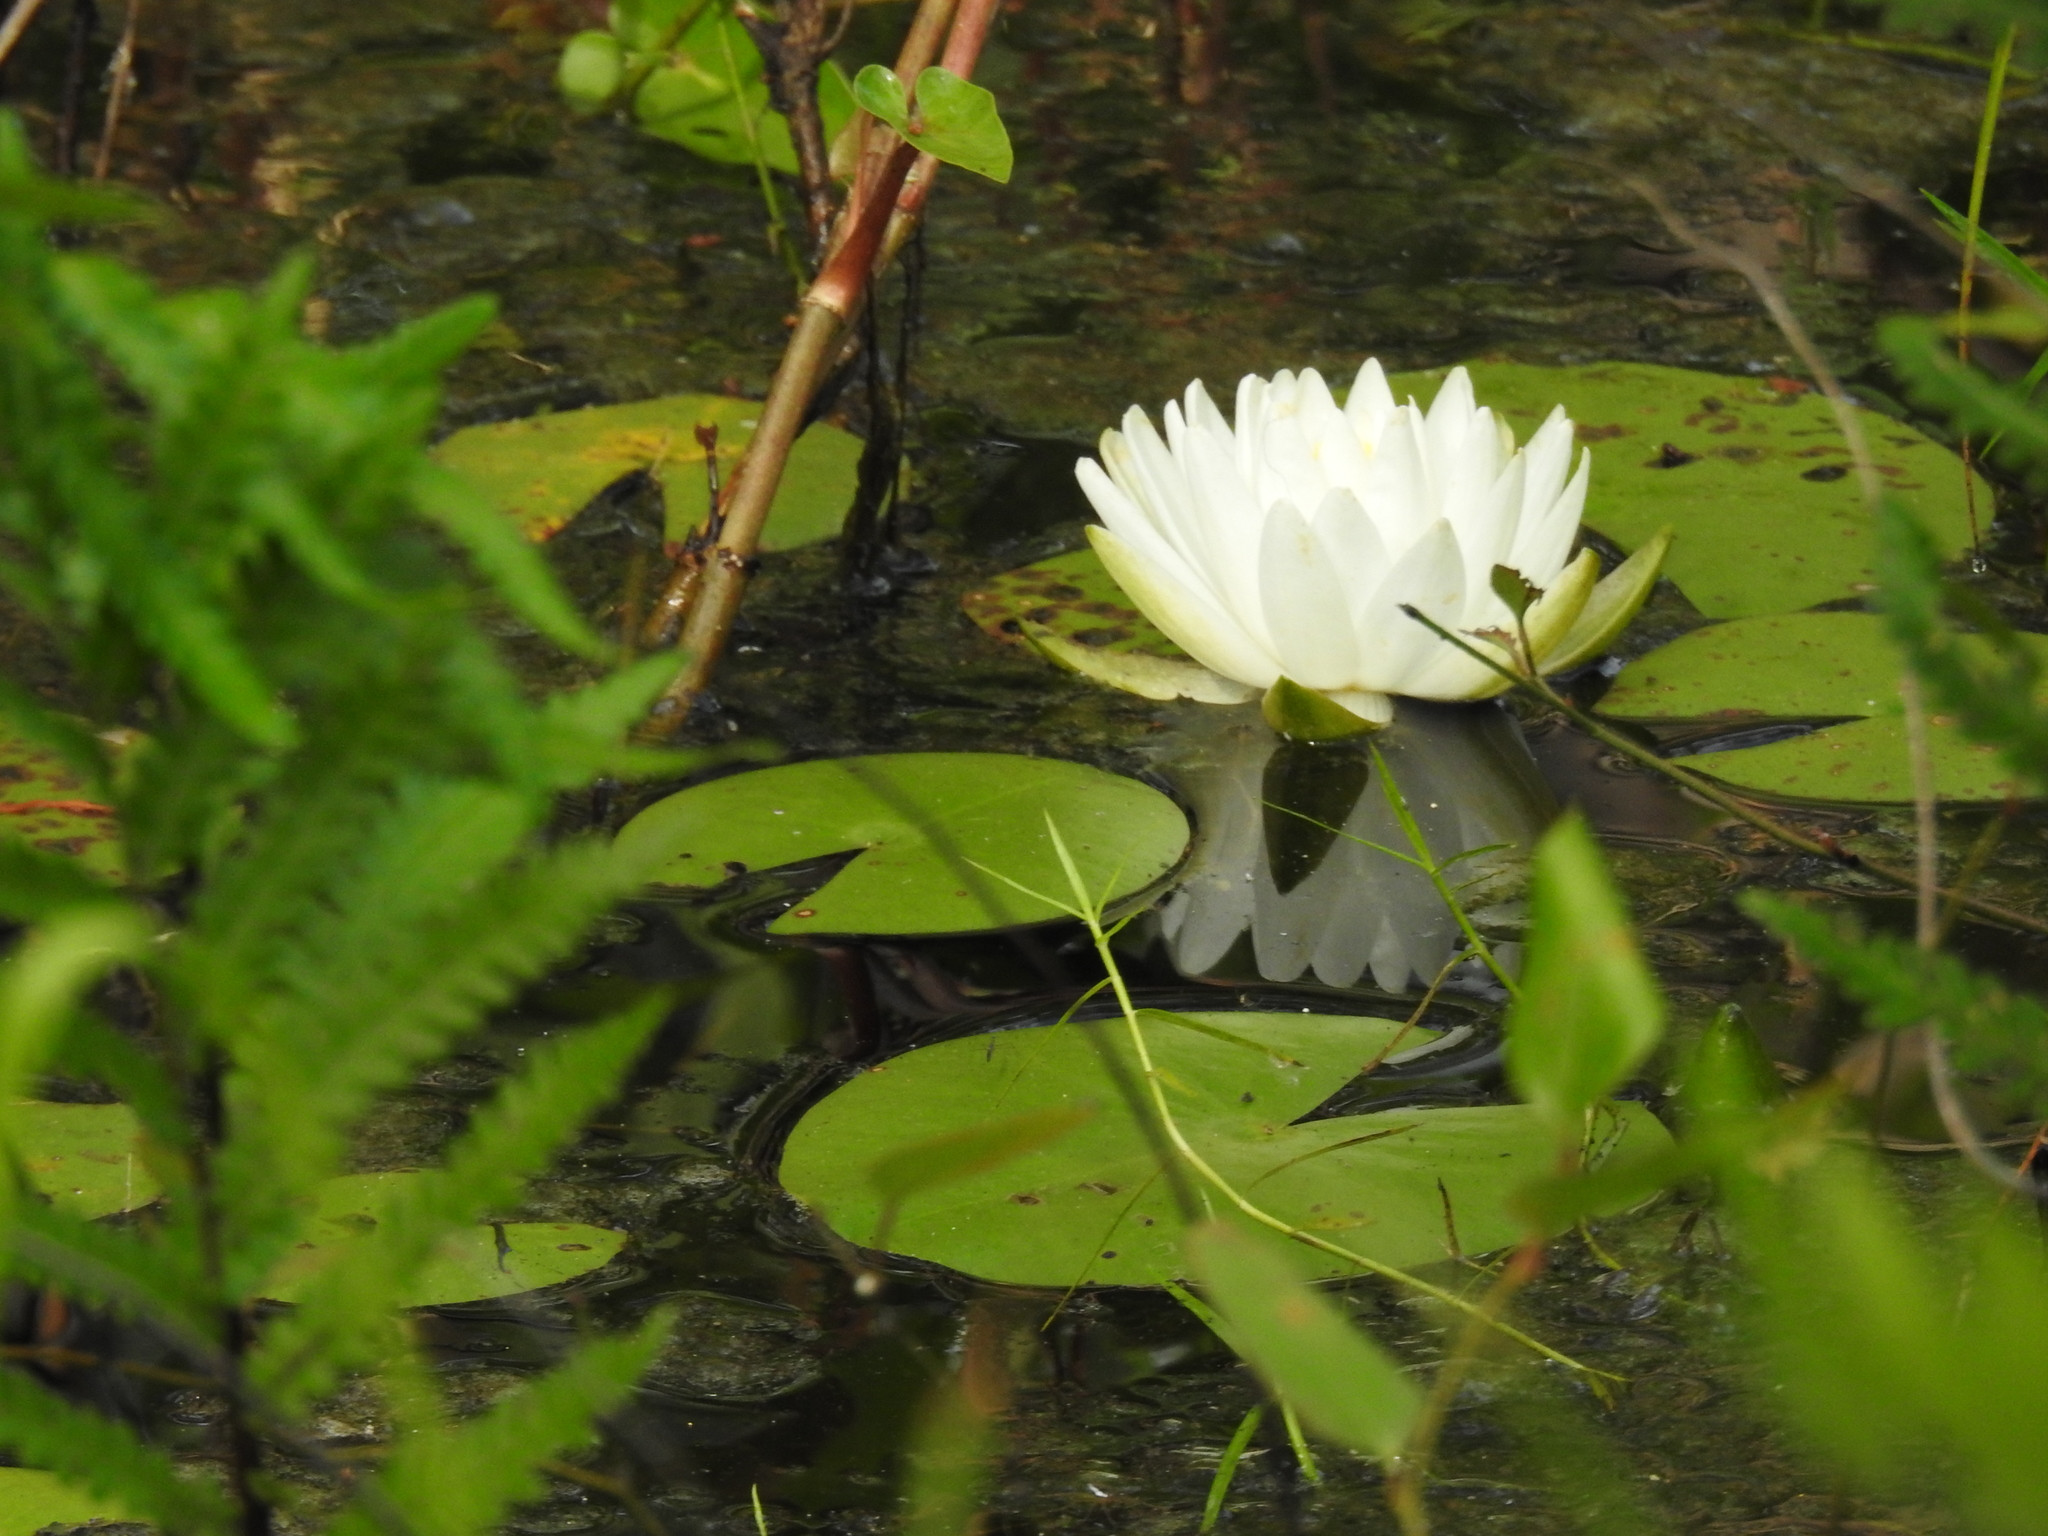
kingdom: Plantae
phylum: Tracheophyta
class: Magnoliopsida
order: Nymphaeales
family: Nymphaeaceae
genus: Nymphaea
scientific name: Nymphaea odorata
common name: Fragrant water-lily
